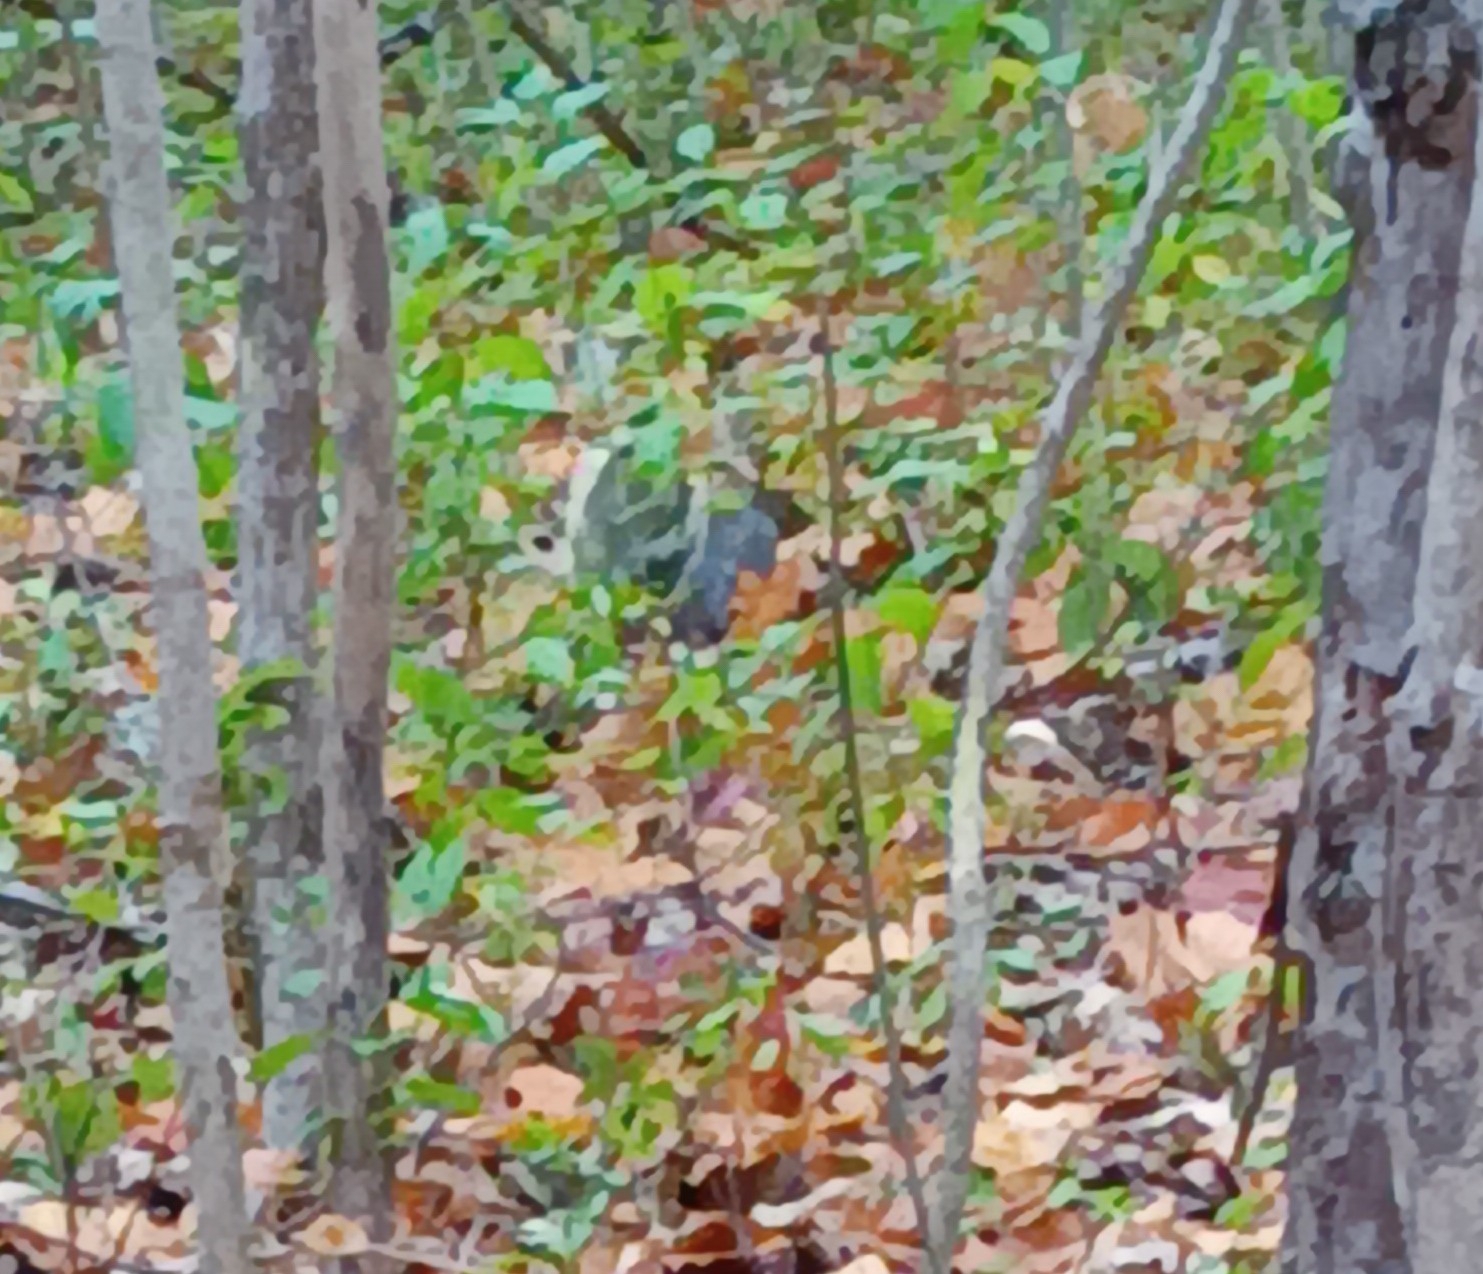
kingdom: Animalia
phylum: Chordata
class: Mammalia
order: Rodentia
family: Sciuridae
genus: Sciurus
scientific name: Sciurus carolinensis
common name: Eastern gray squirrel
